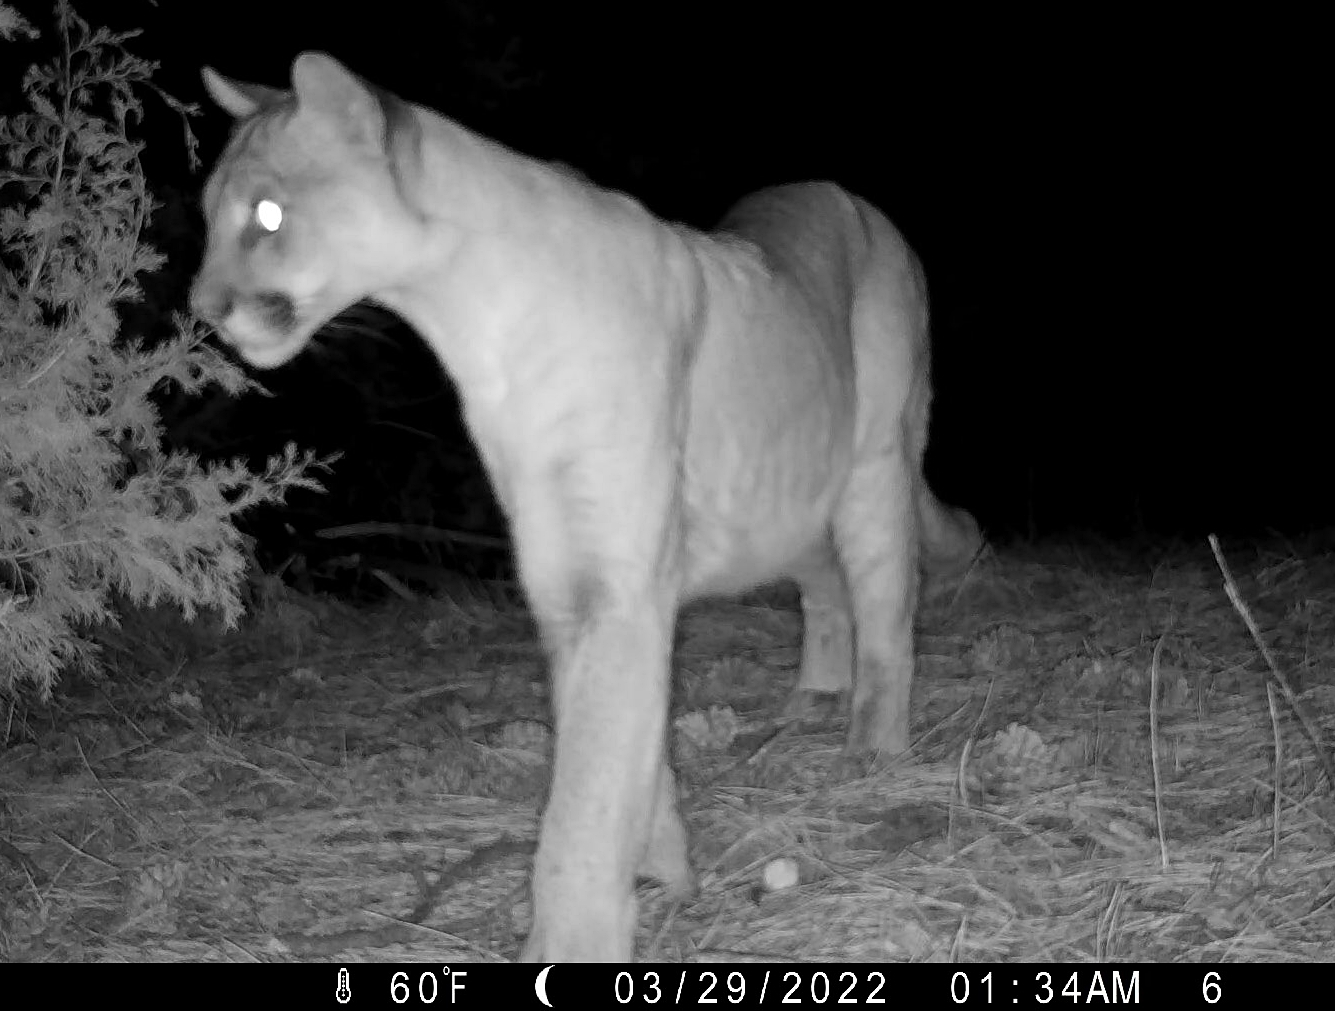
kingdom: Animalia
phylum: Chordata
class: Mammalia
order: Carnivora
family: Felidae
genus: Puma
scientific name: Puma concolor
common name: Puma
